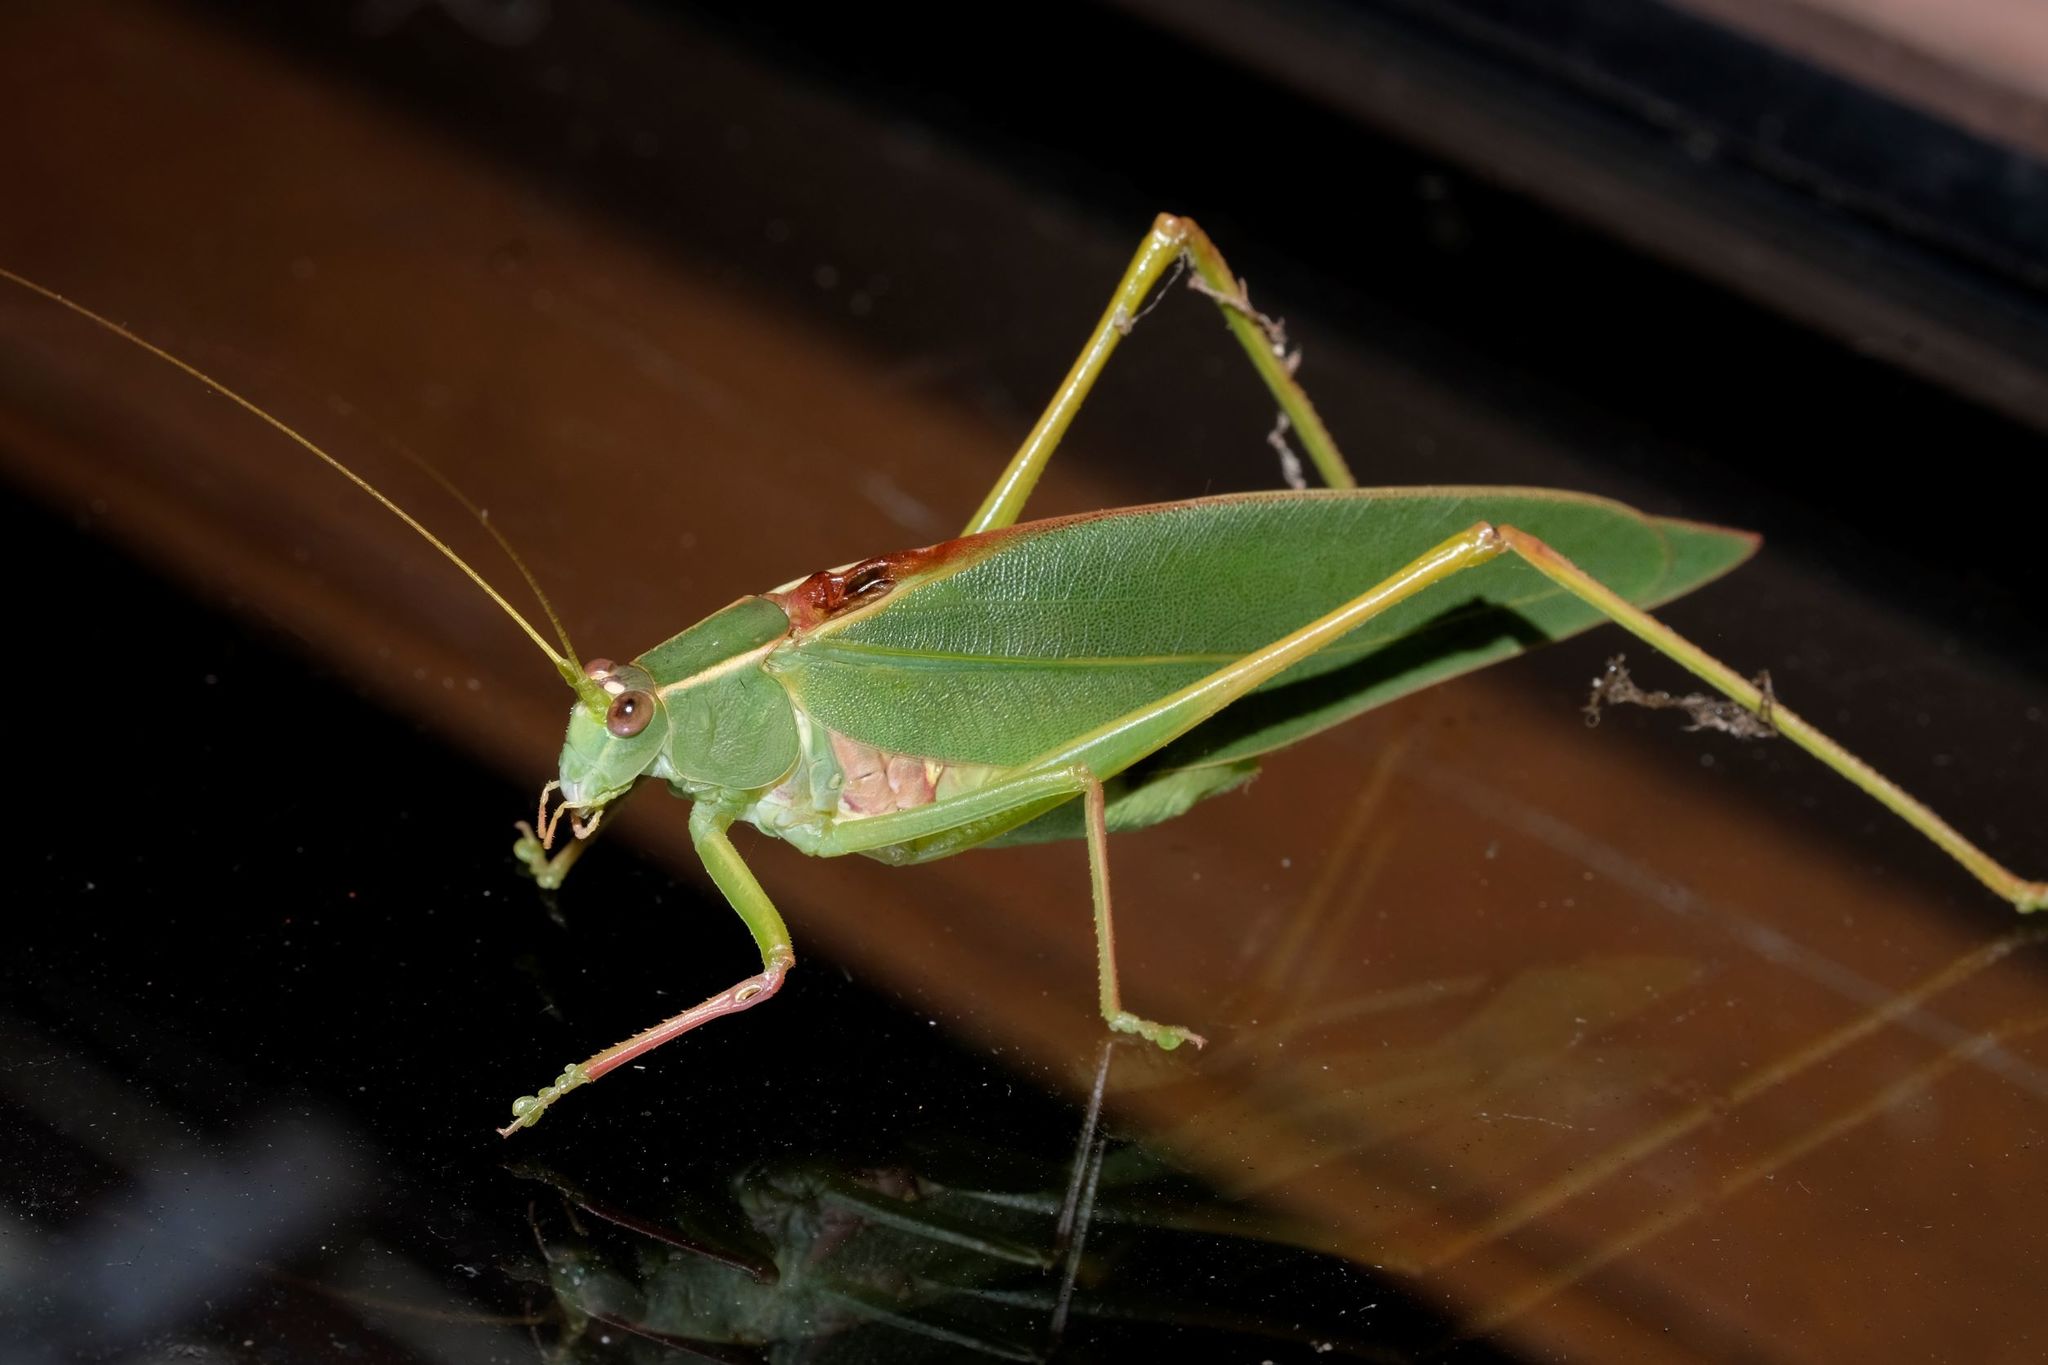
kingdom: Animalia
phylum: Arthropoda
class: Insecta
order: Orthoptera
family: Tettigoniidae
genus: Torbia
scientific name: Torbia viridissima
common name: Non-predaceous gum leaf katydid
